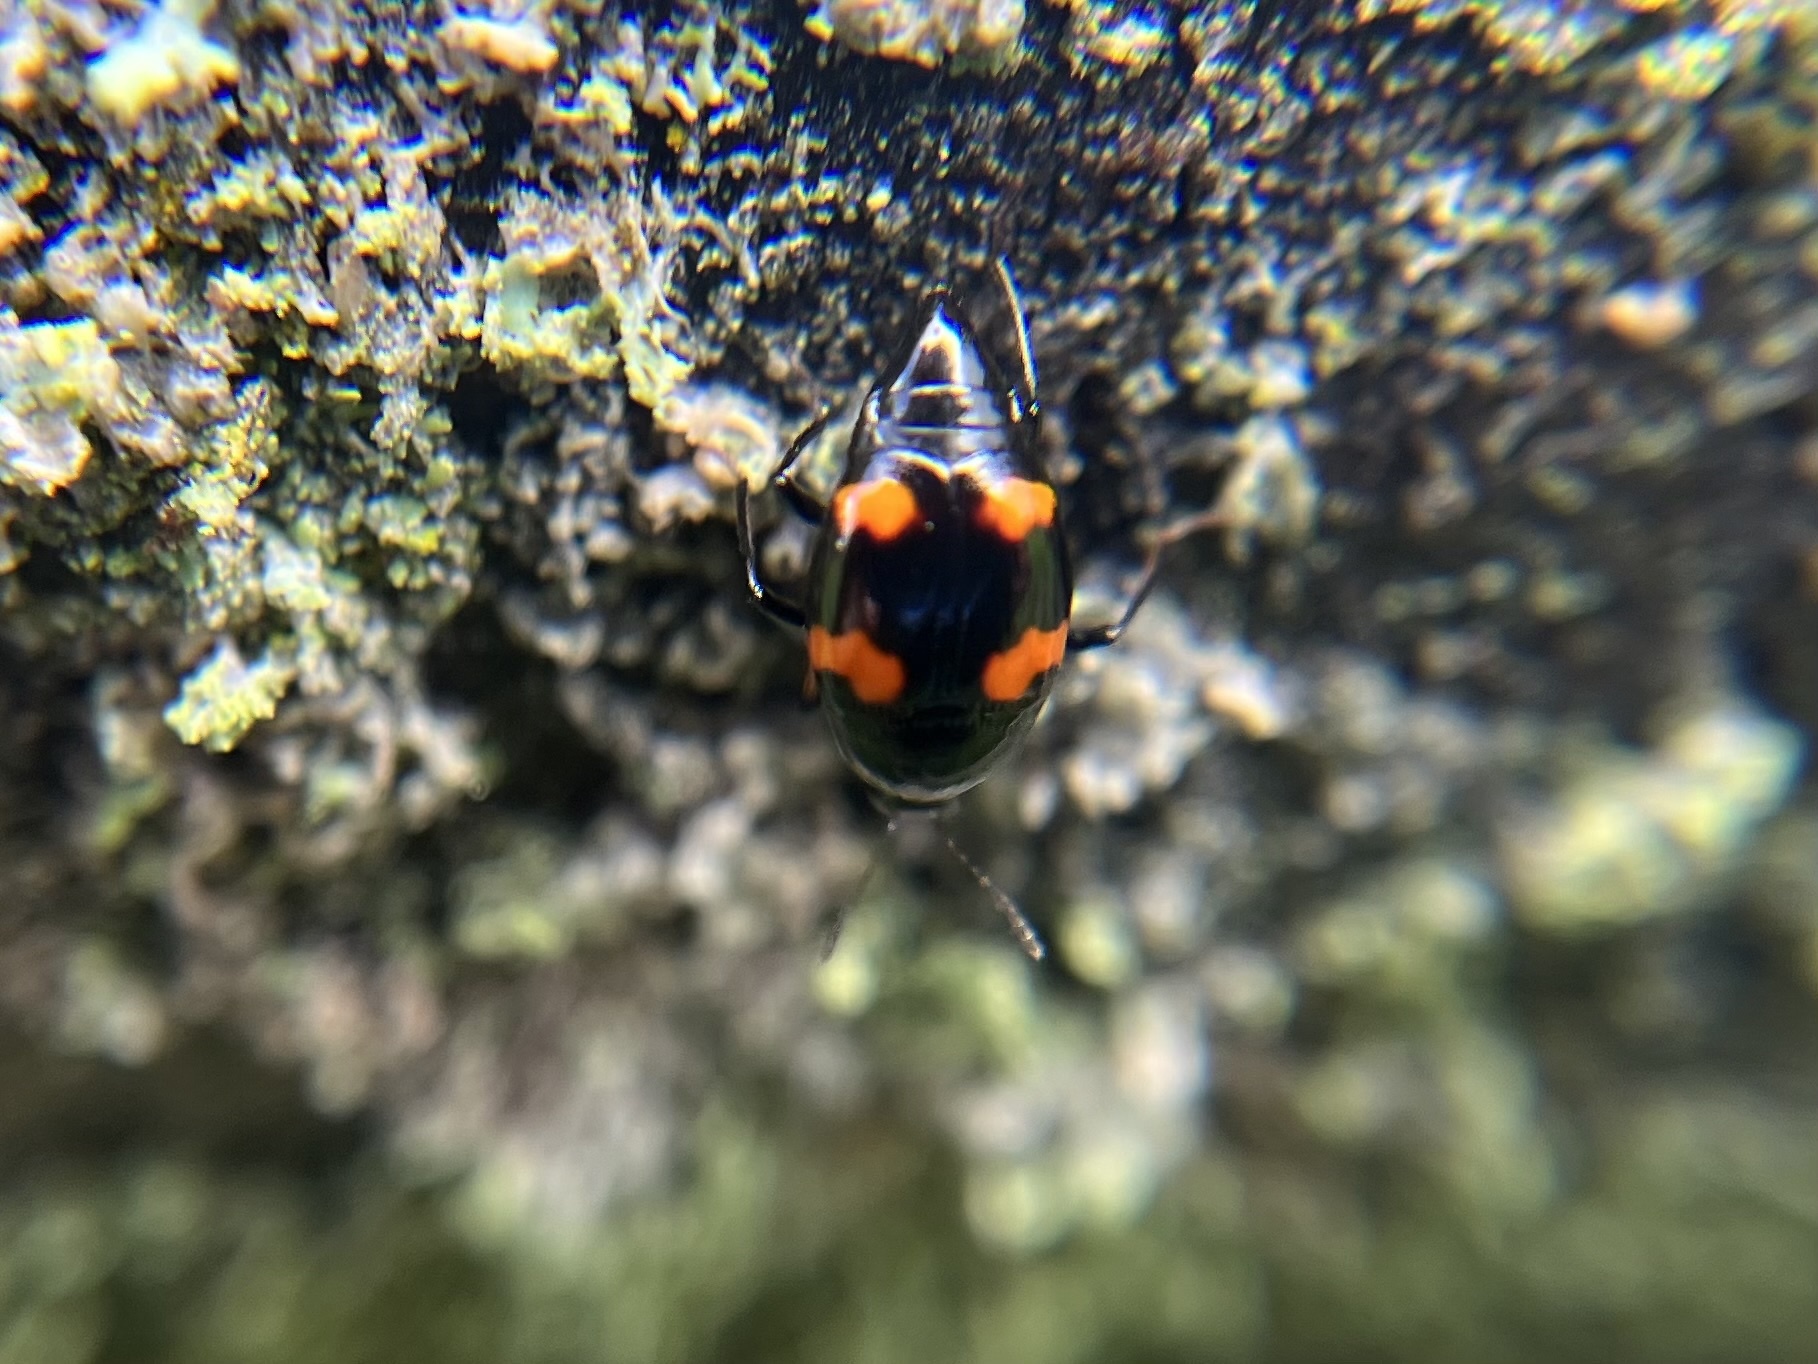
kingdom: Animalia
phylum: Arthropoda
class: Insecta
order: Coleoptera
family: Staphylinidae
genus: Scaphidium
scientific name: Scaphidium quadrimaculatum
